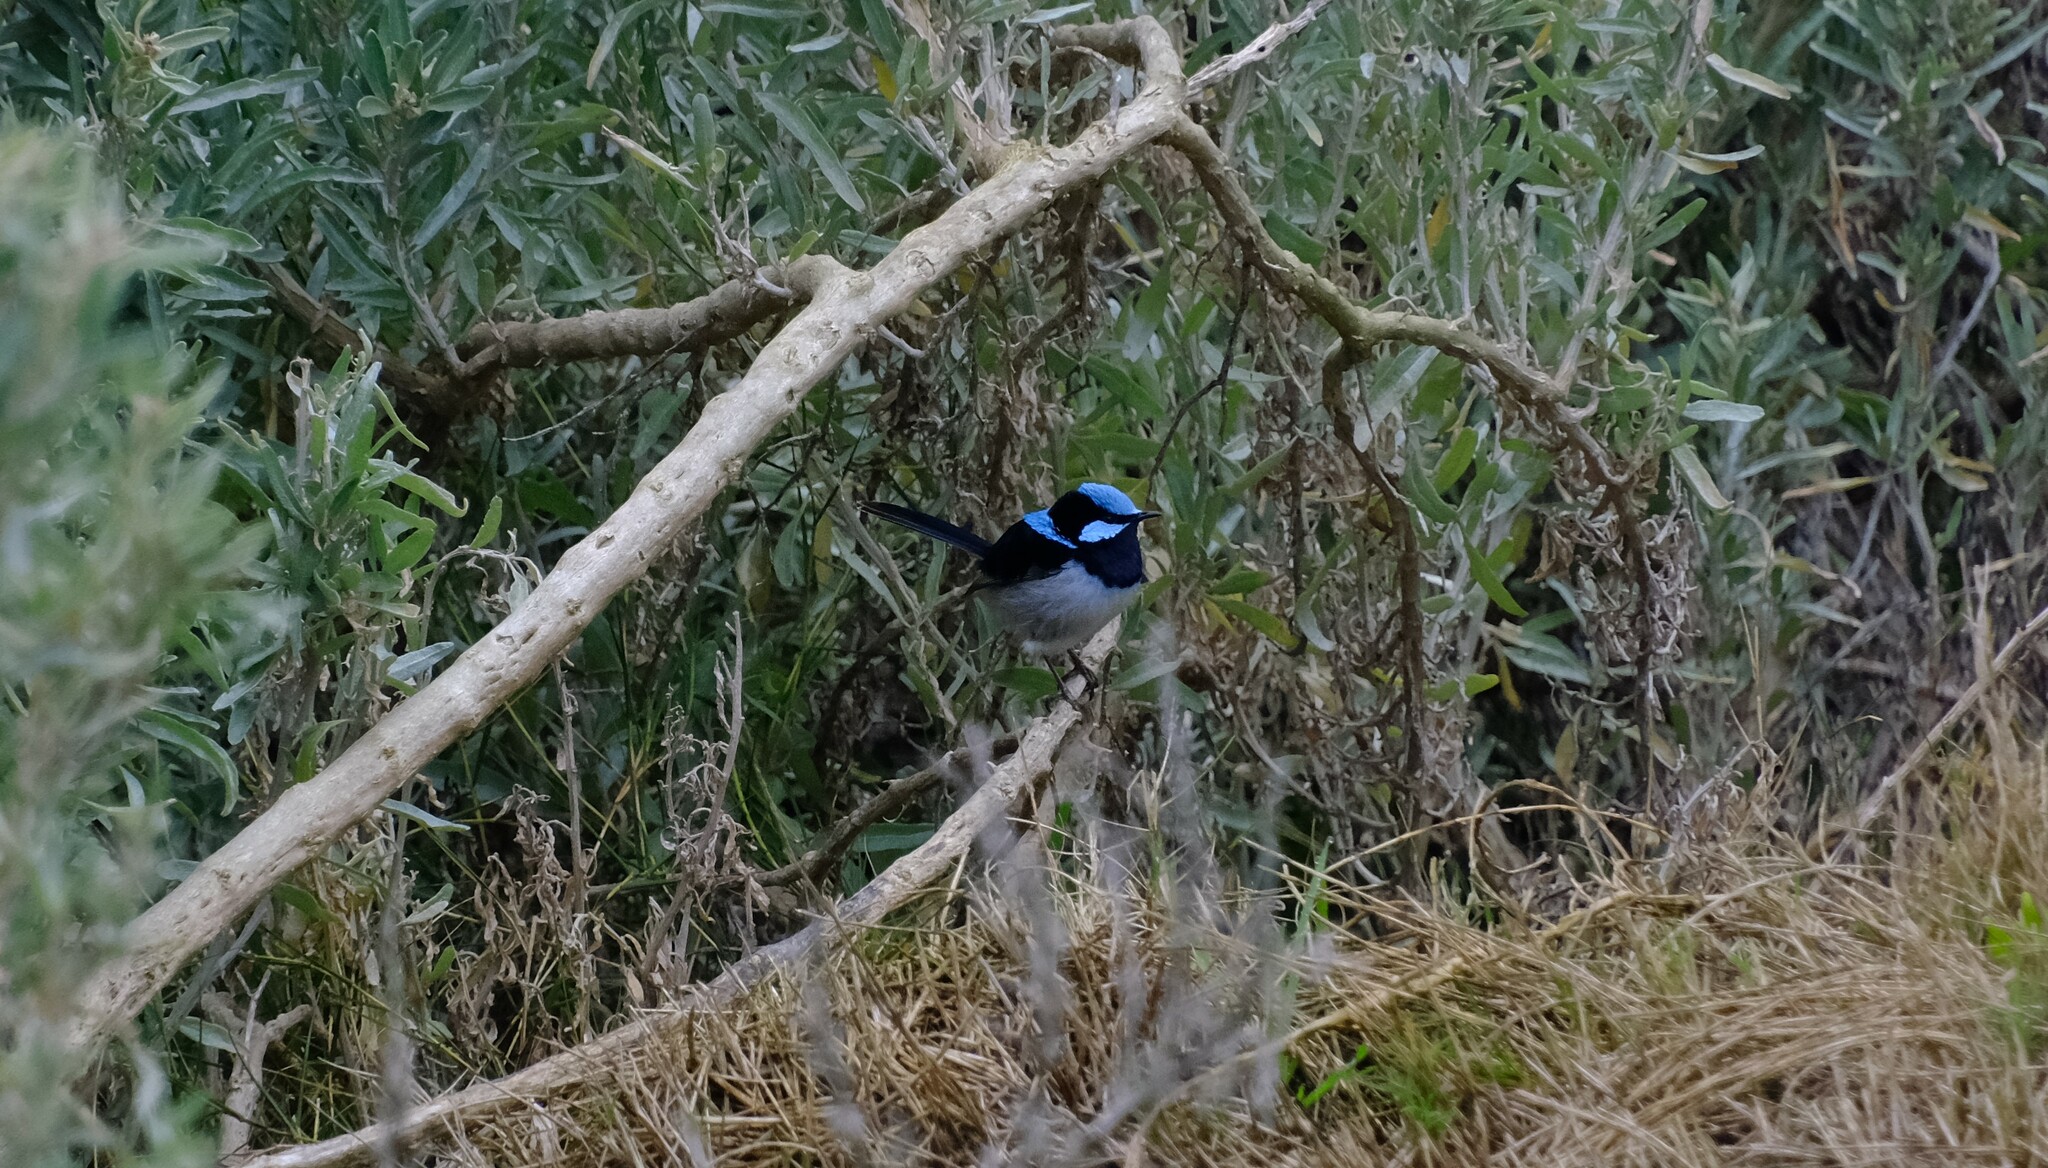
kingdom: Animalia
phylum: Chordata
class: Aves
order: Passeriformes
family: Maluridae
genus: Malurus
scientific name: Malurus cyaneus
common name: Superb fairywren
